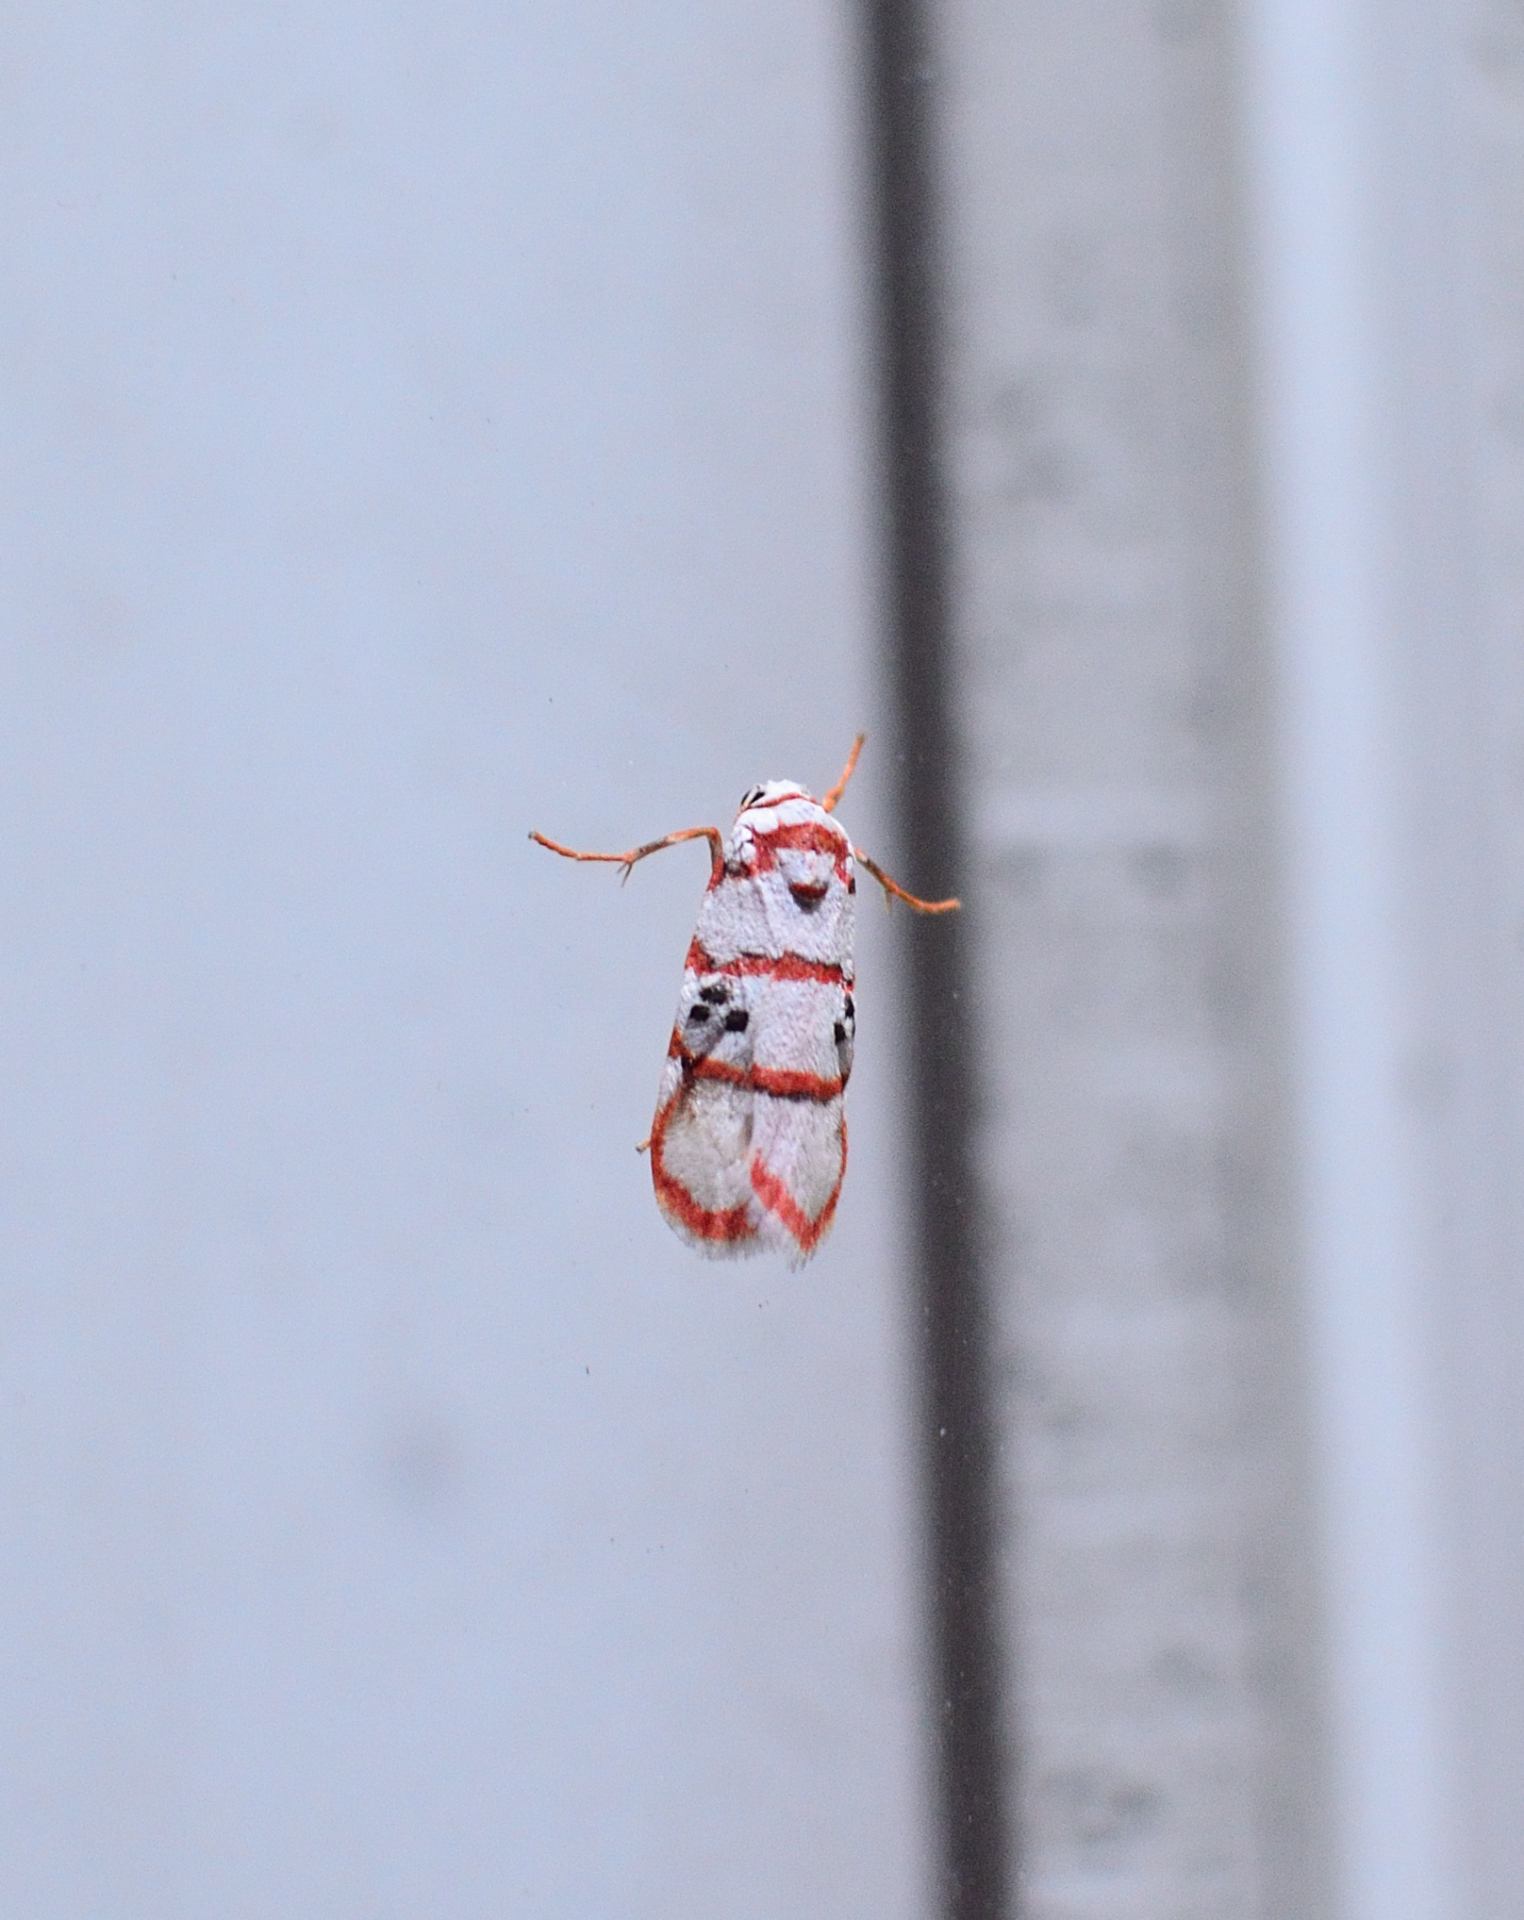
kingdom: Animalia
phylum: Arthropoda
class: Insecta
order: Lepidoptera
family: Erebidae
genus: Cyana
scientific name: Cyana peregrina
